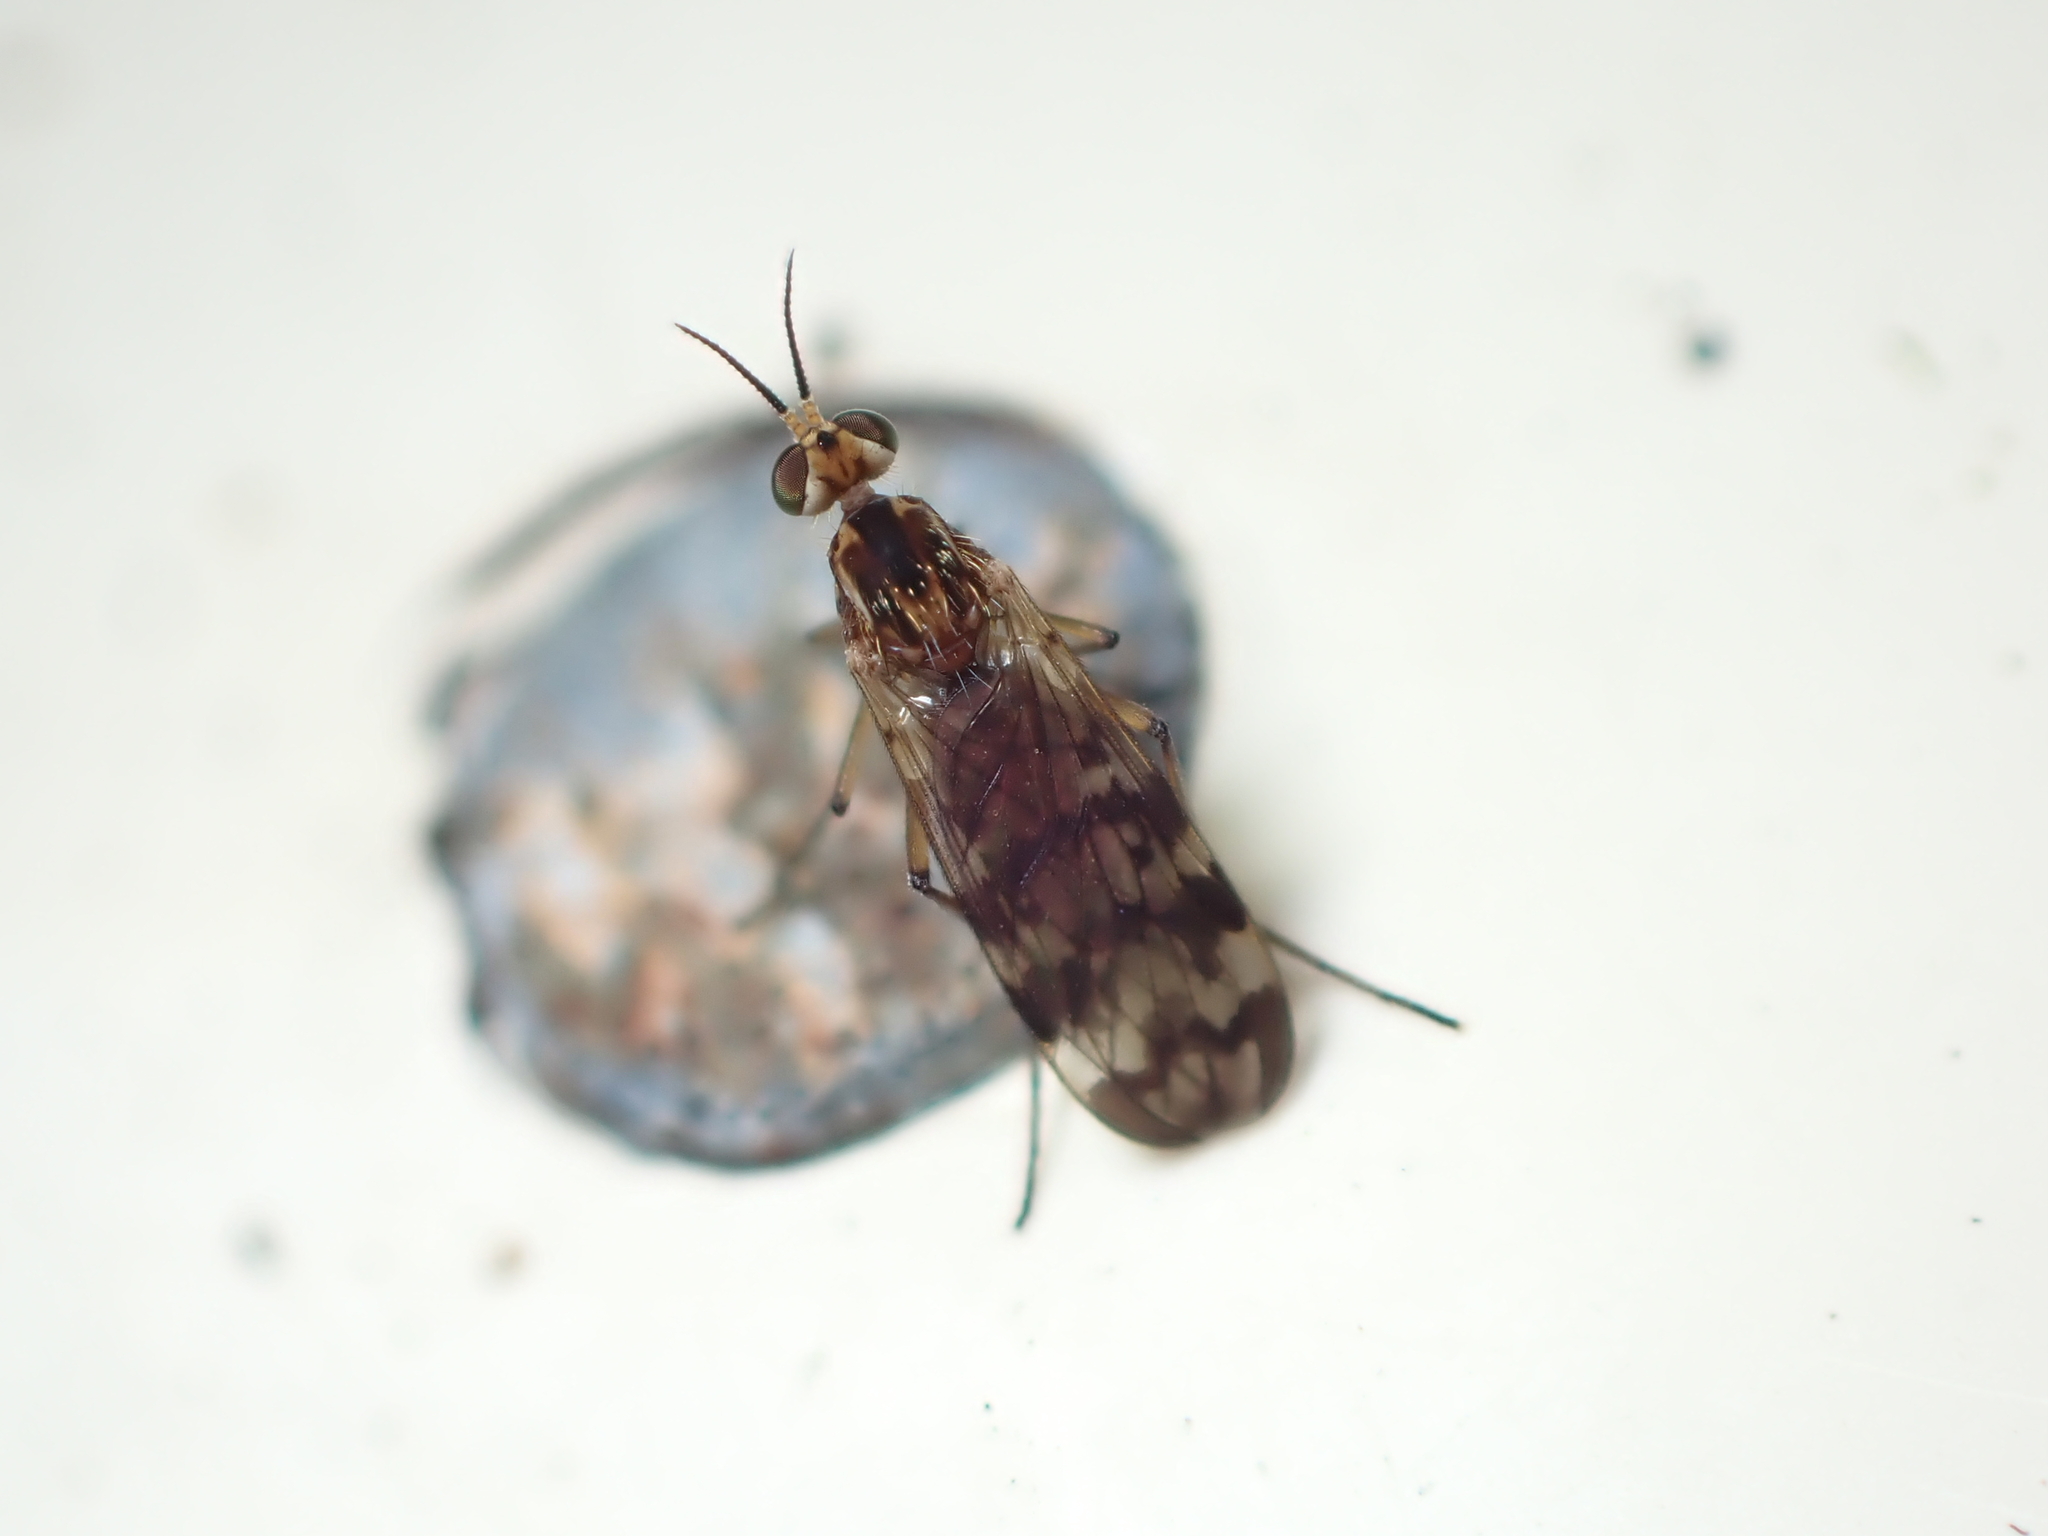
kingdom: Animalia
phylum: Arthropoda
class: Insecta
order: Diptera
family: Anisopodidae
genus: Sylvicola
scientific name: Sylvicola dubius
